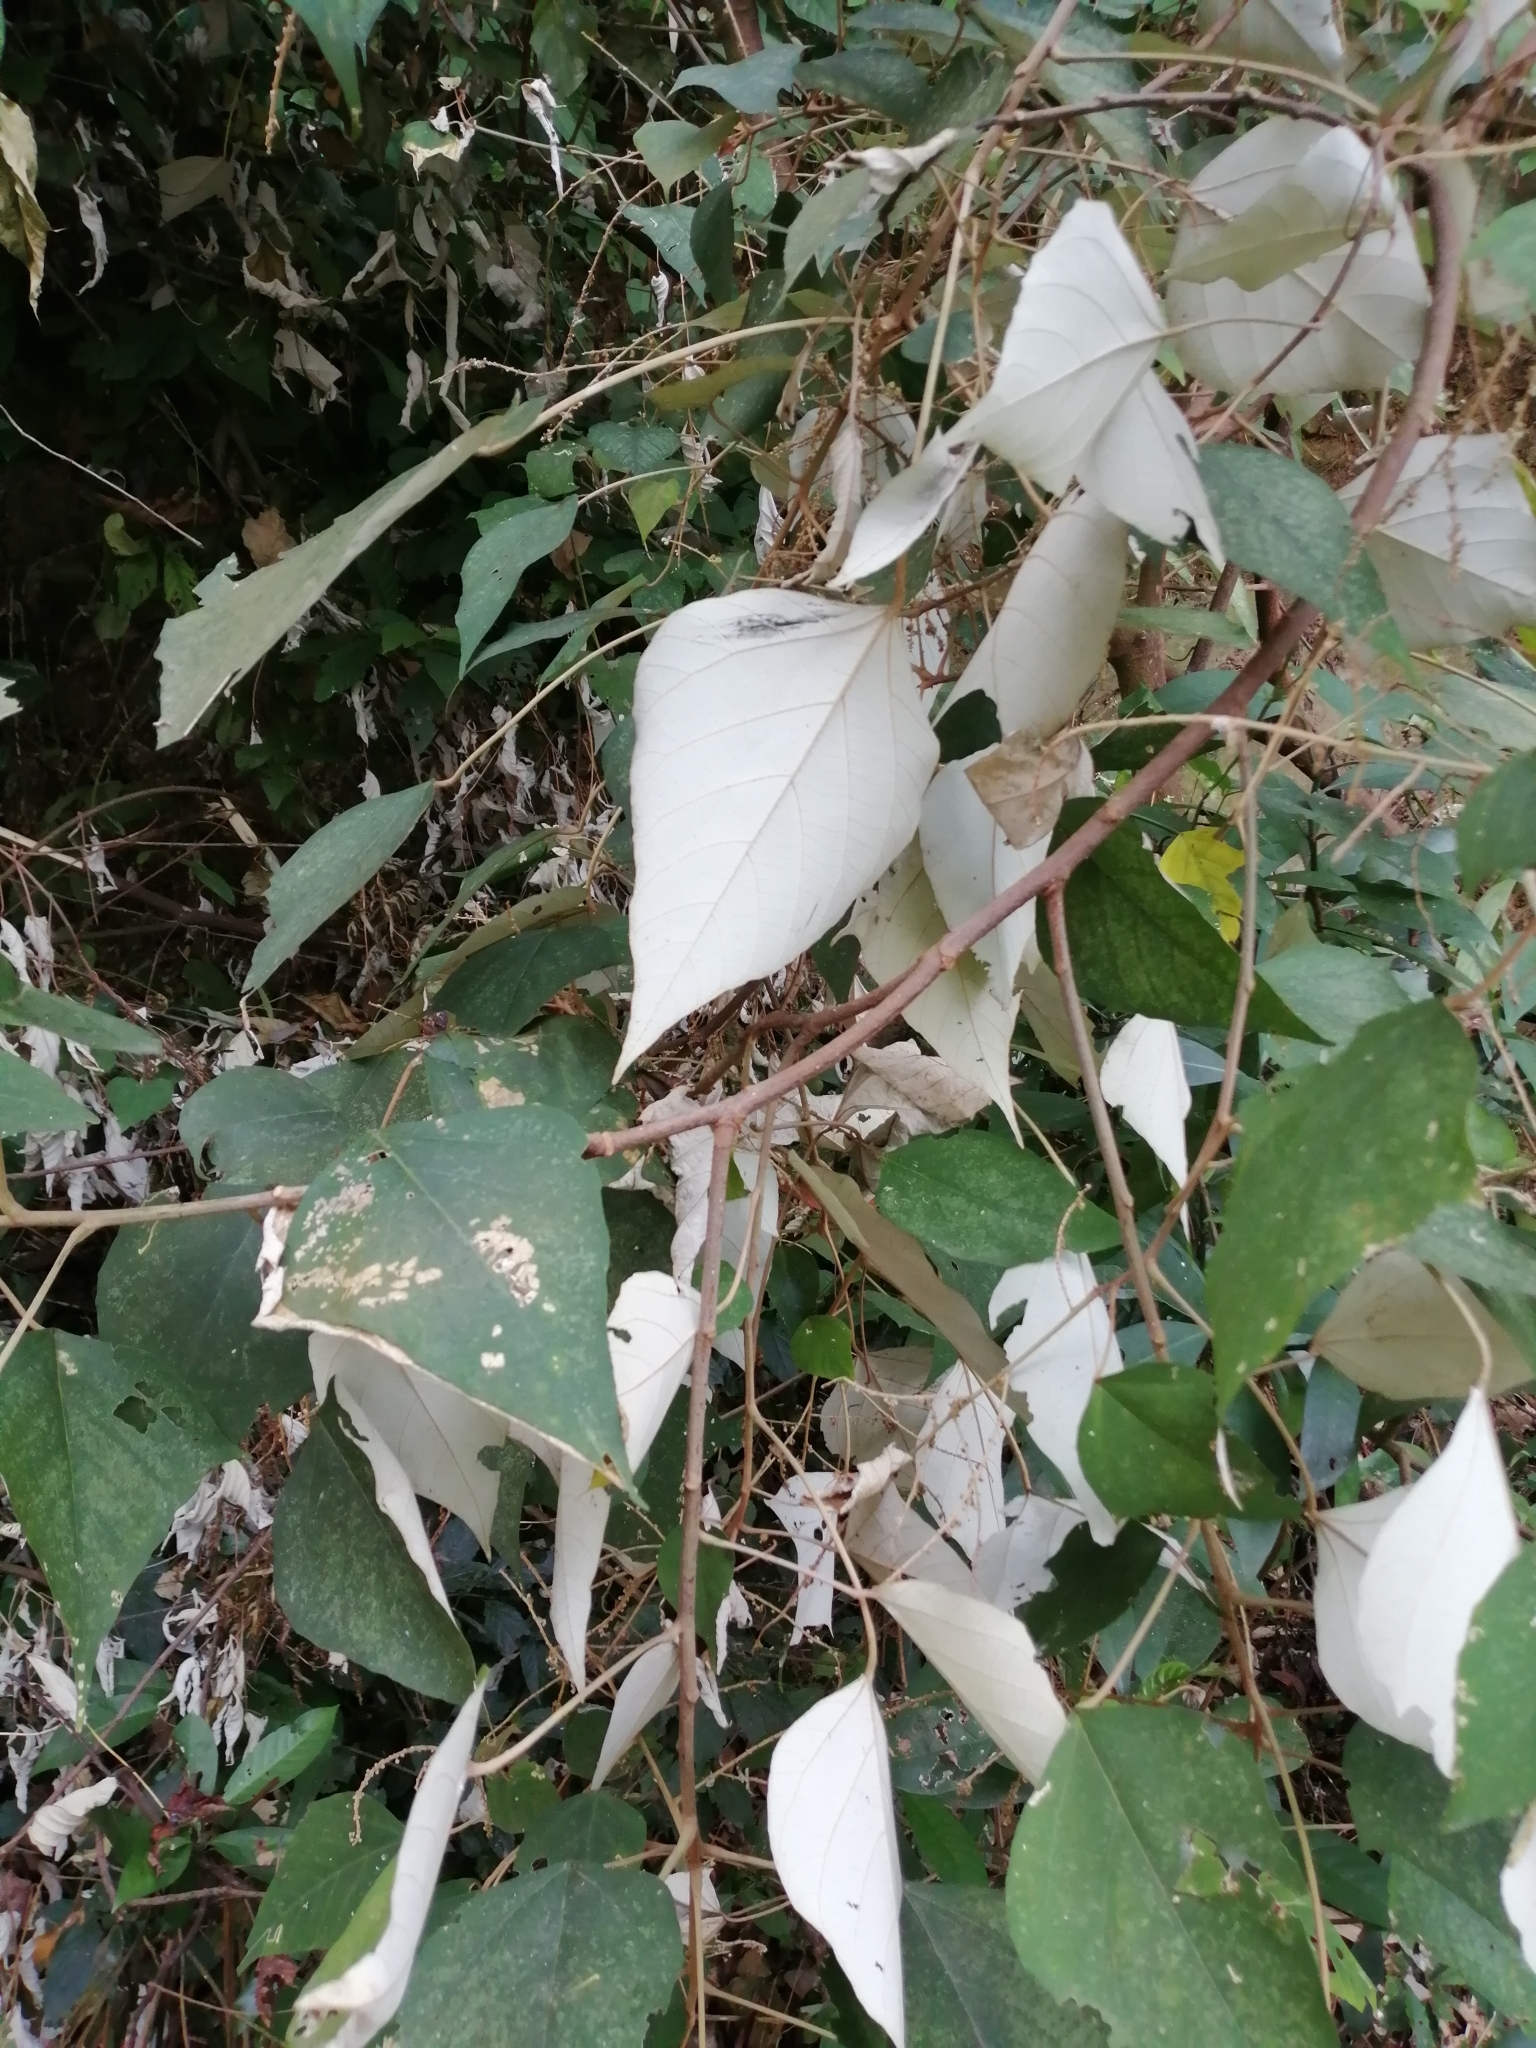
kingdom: Plantae
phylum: Tracheophyta
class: Magnoliopsida
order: Malpighiales
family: Euphorbiaceae
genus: Mallotus
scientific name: Mallotus paniculatus
